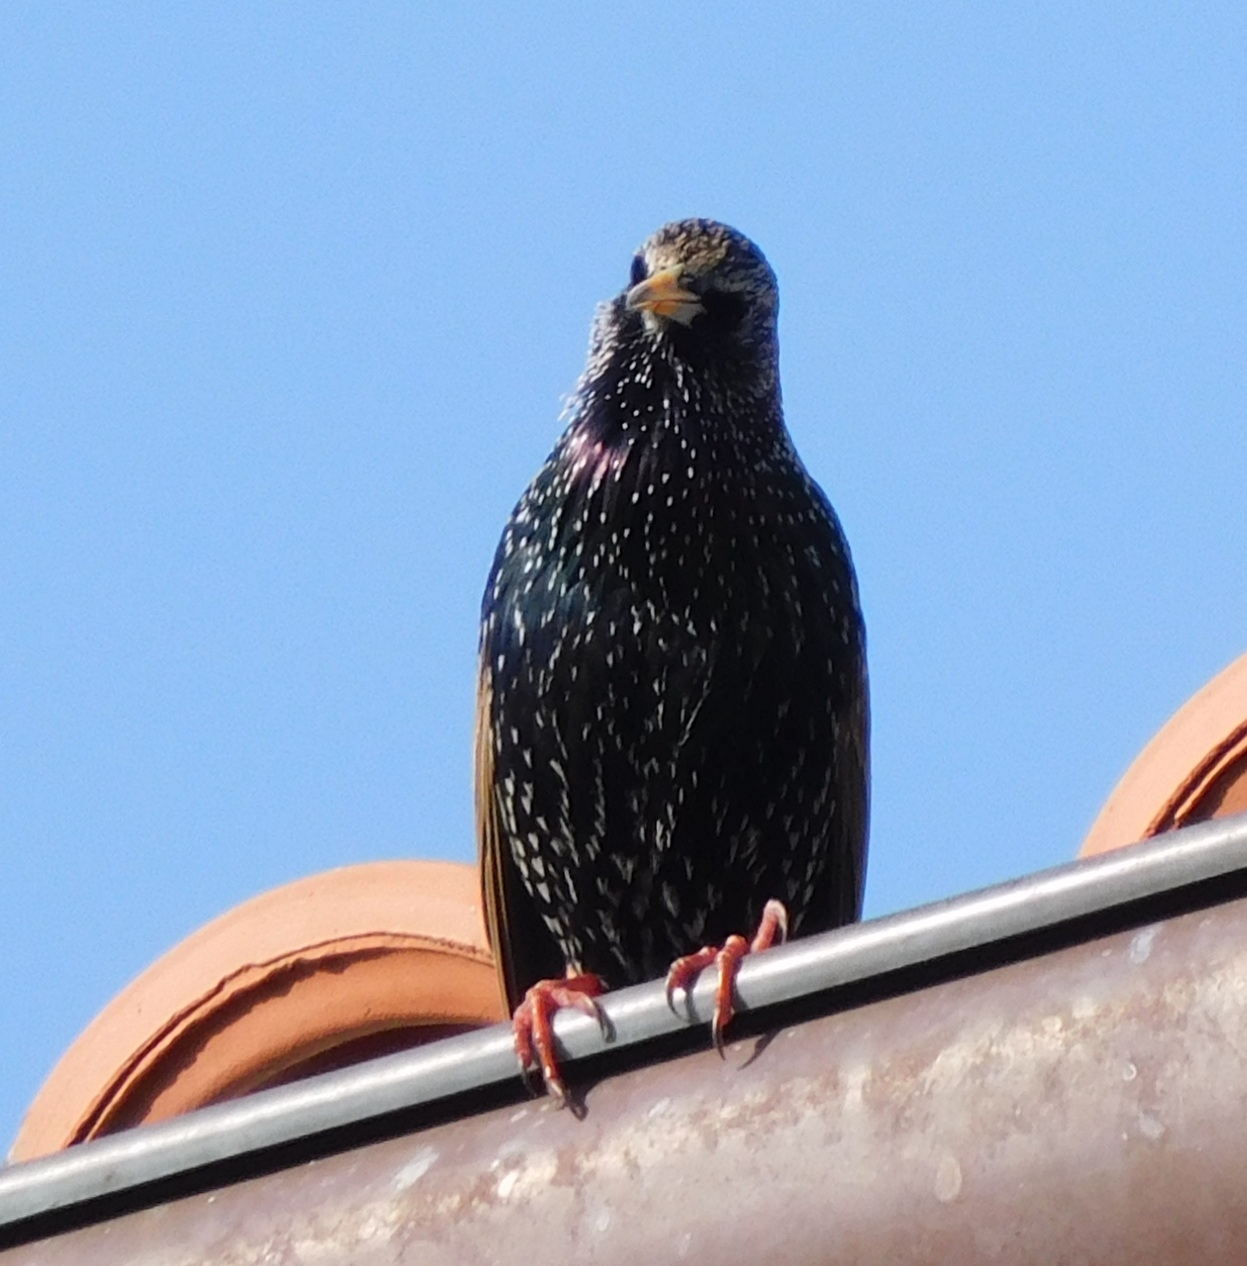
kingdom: Animalia
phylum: Chordata
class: Aves
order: Passeriformes
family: Sturnidae
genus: Sturnus
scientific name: Sturnus vulgaris
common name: Common starling
